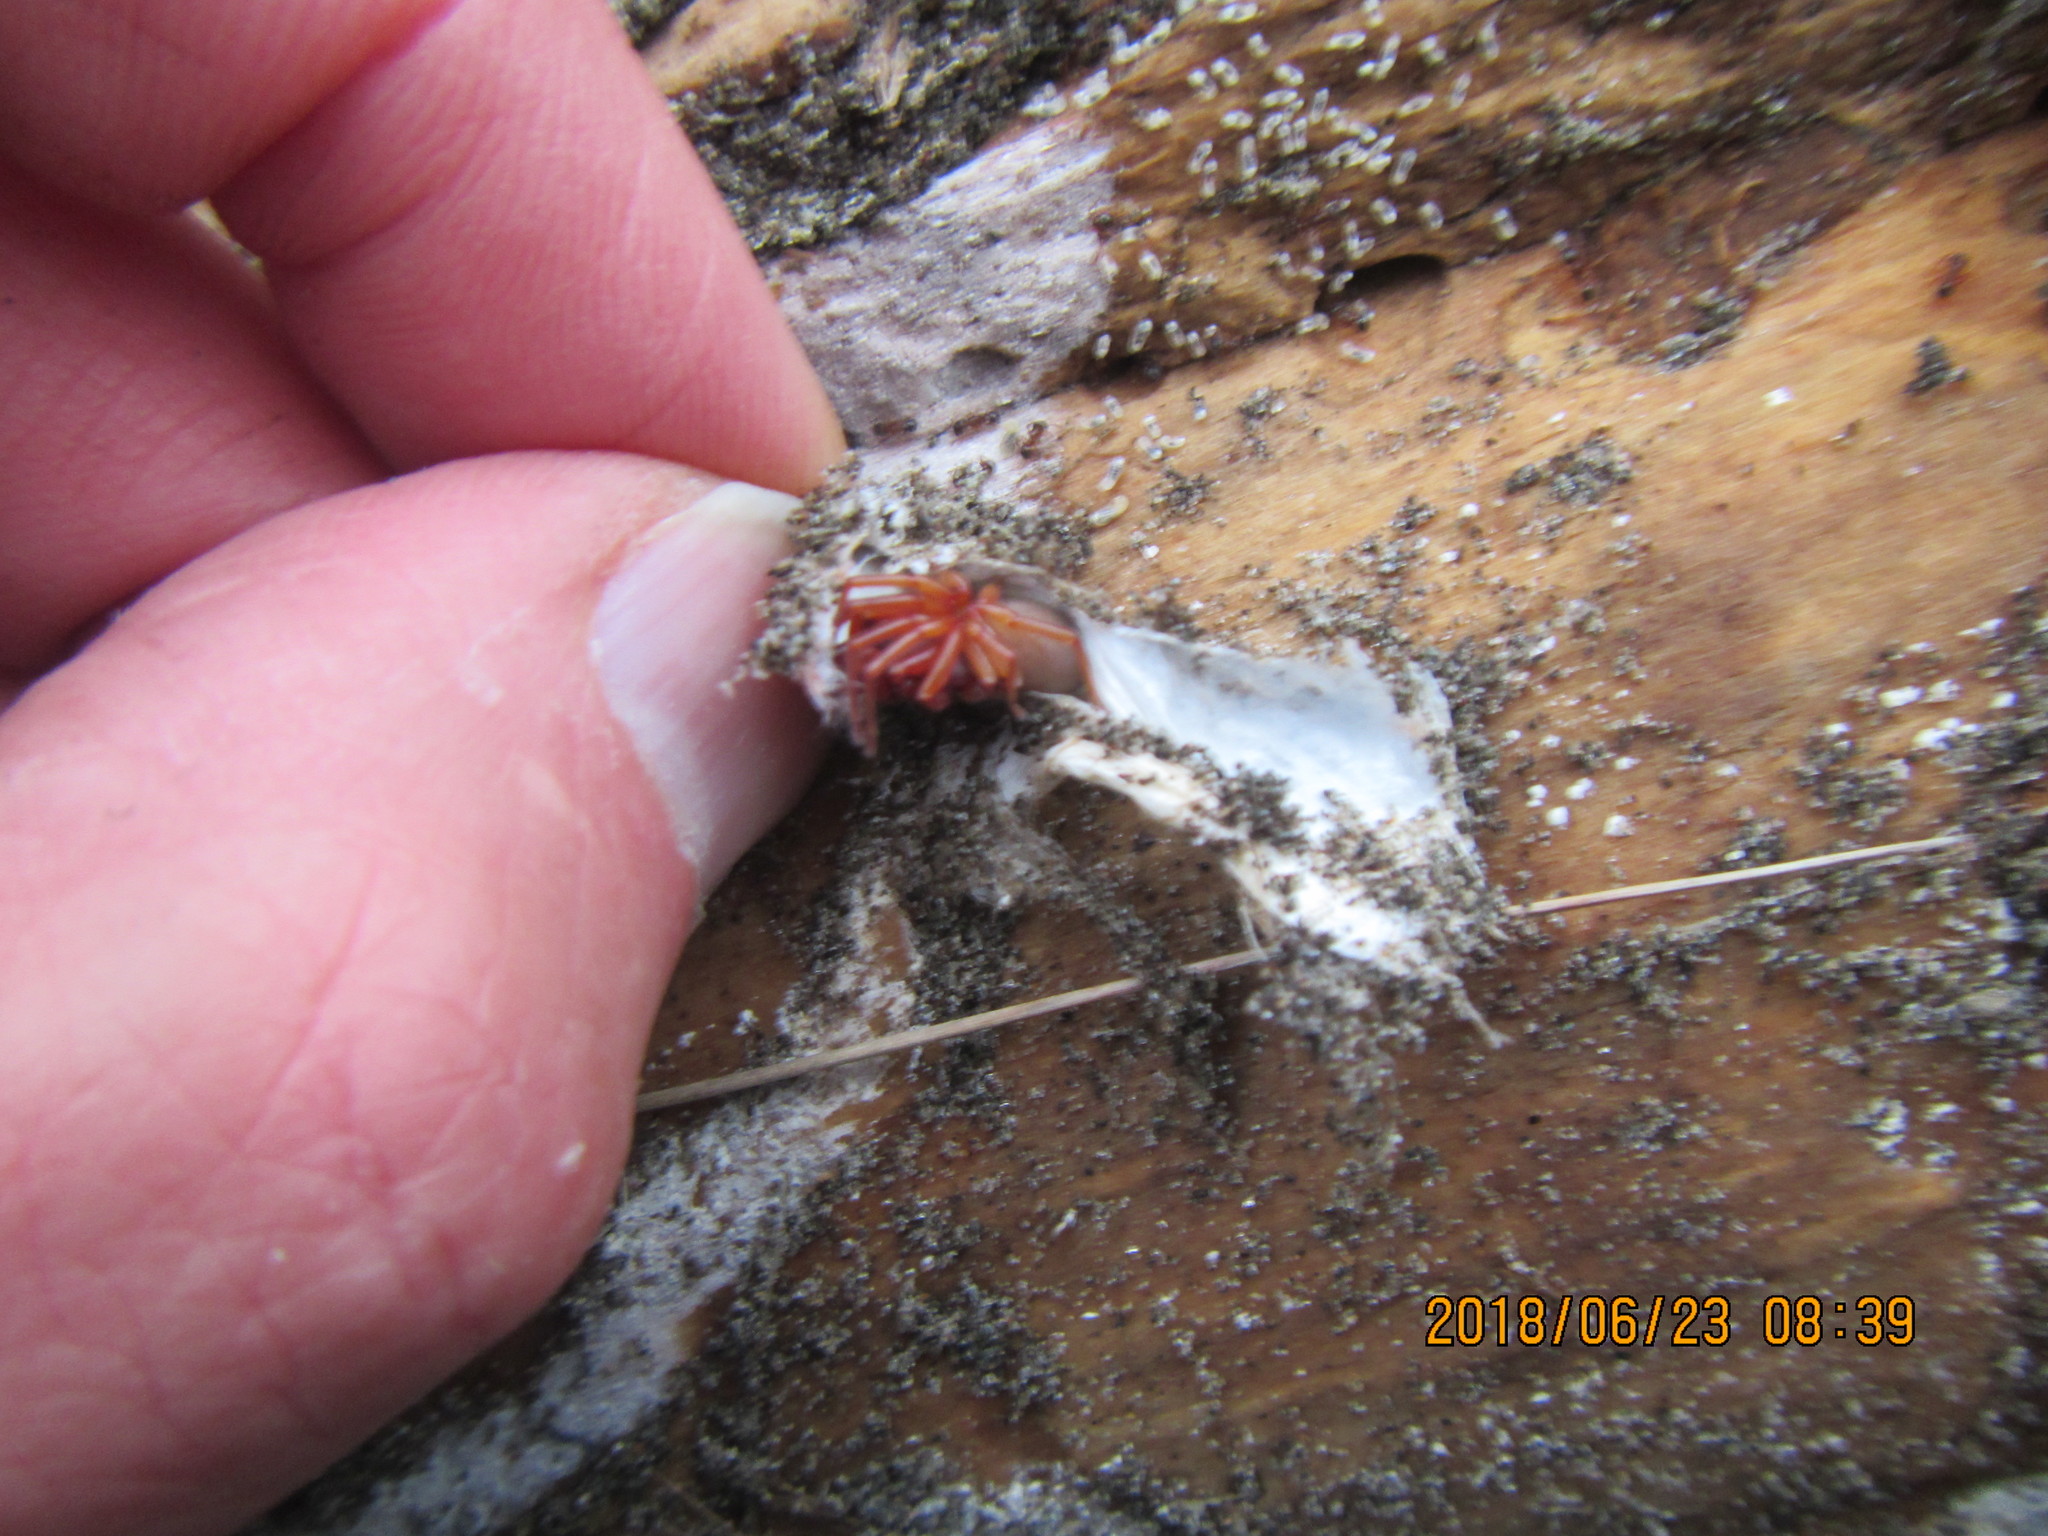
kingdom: Animalia
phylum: Arthropoda
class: Arachnida
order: Araneae
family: Dysderidae
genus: Dysdera
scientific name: Dysdera crocata
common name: Woodlouse spider
